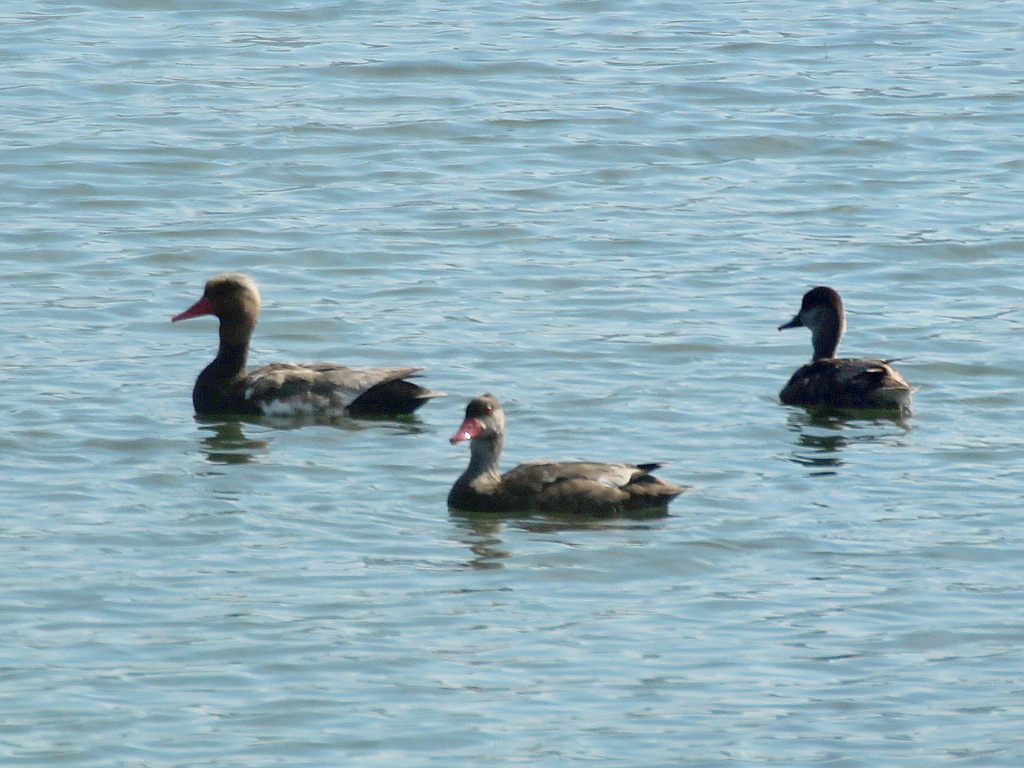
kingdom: Animalia
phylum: Chordata
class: Aves
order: Anseriformes
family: Anatidae
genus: Netta
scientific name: Netta rufina
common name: Red-crested pochard
